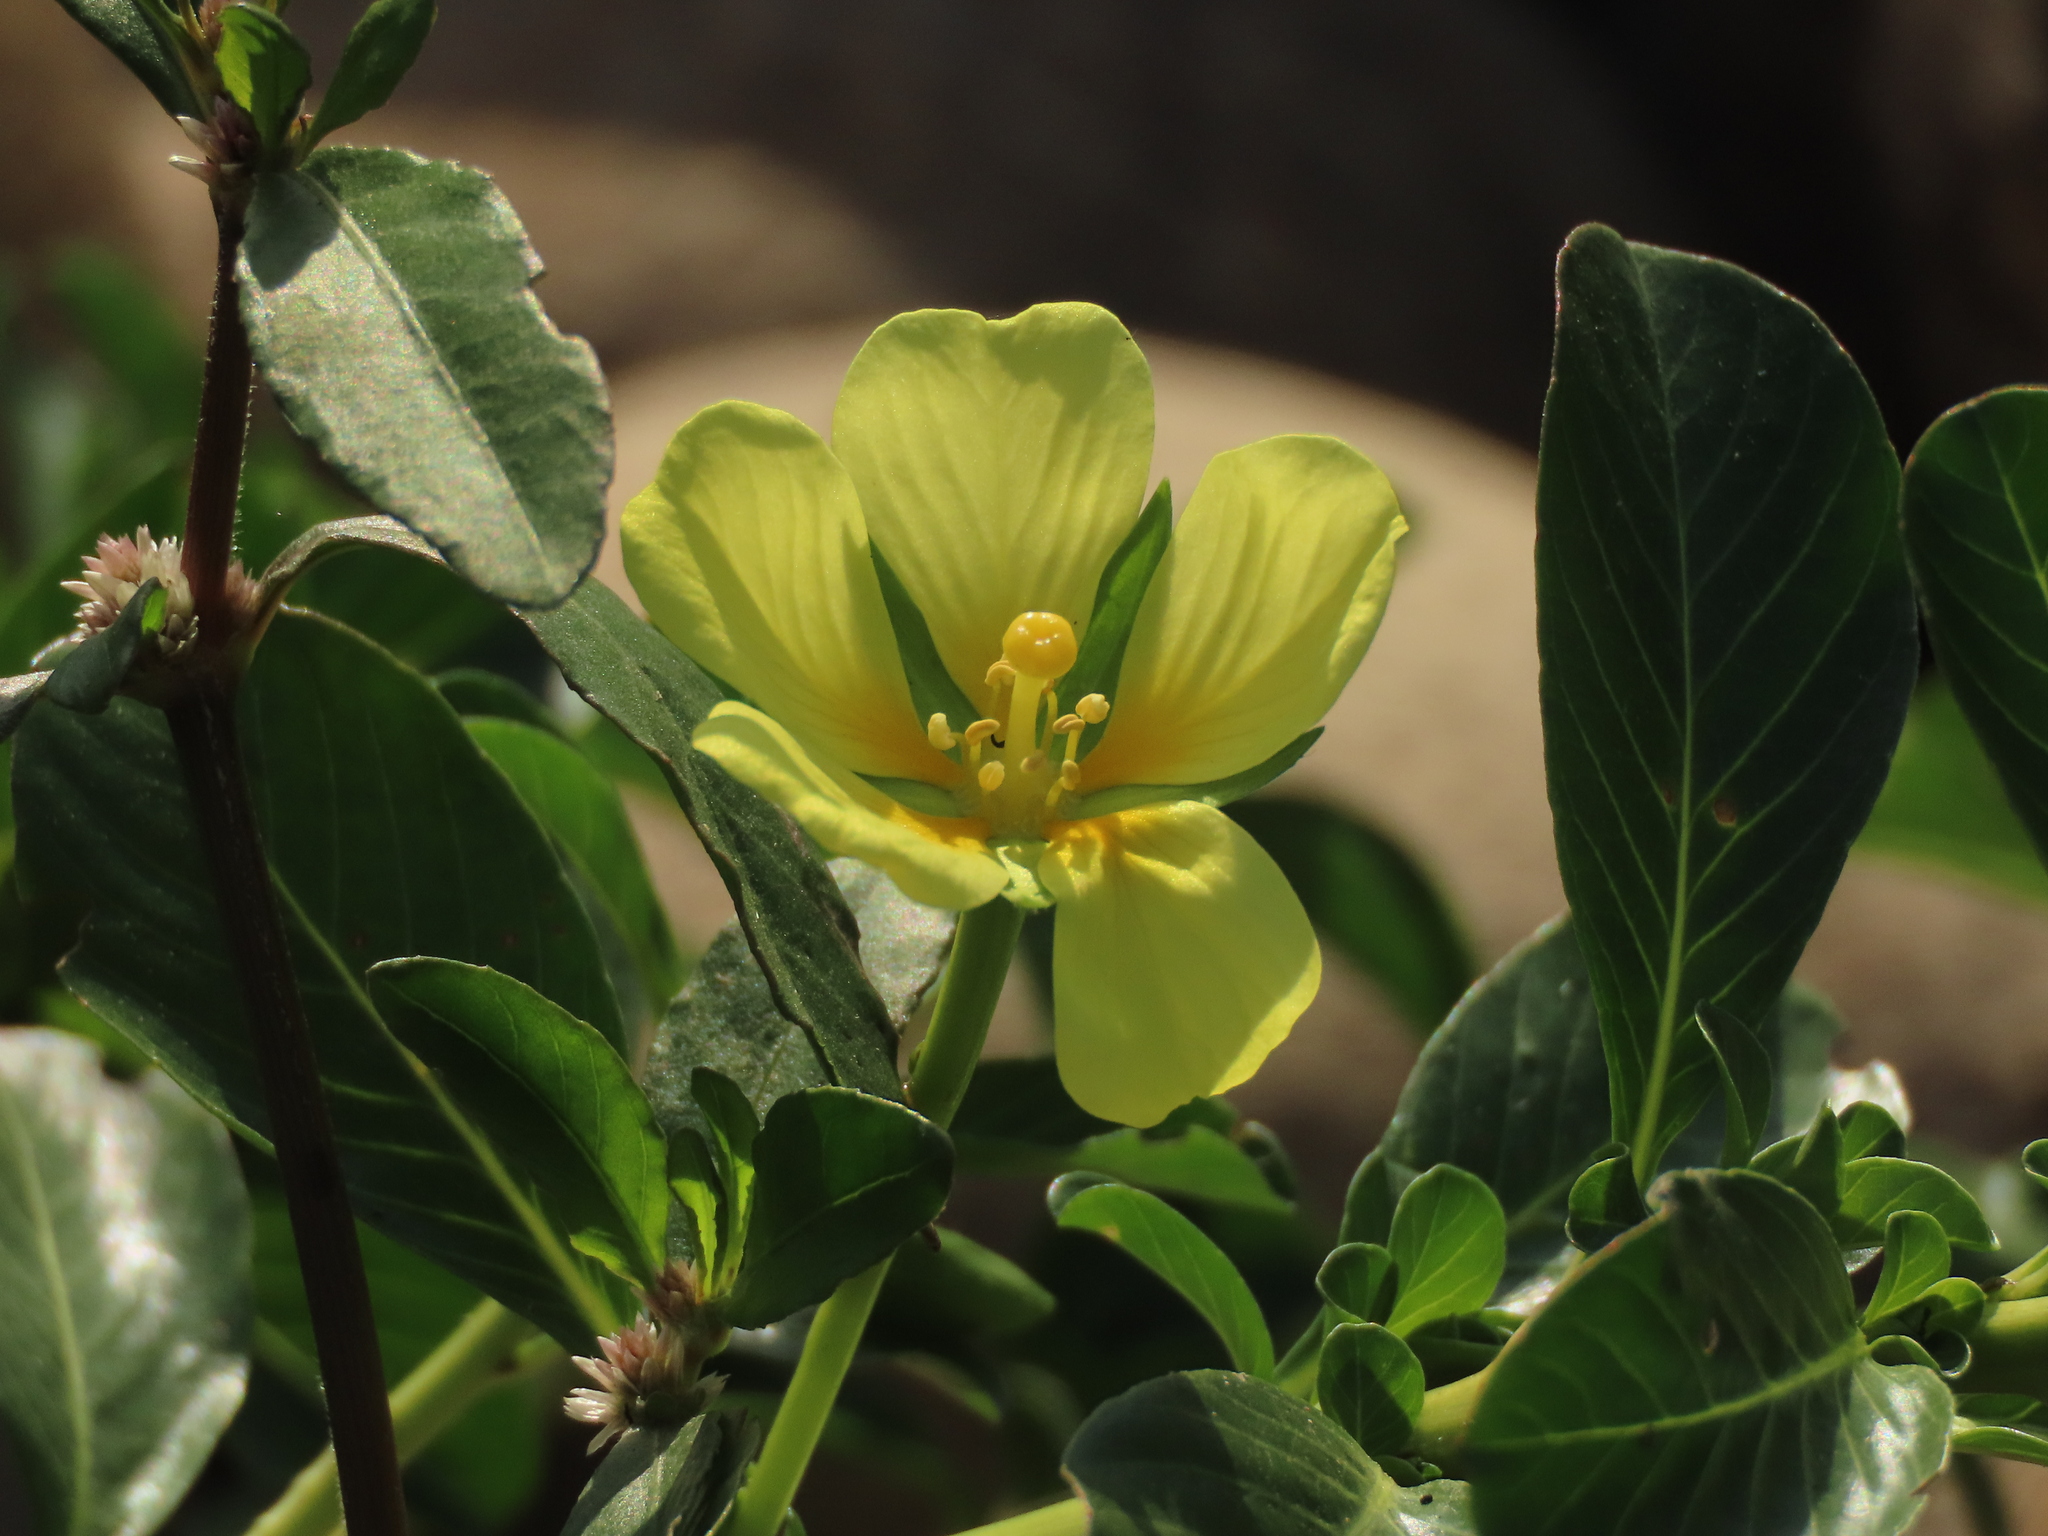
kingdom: Plantae
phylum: Tracheophyta
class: Magnoliopsida
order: Myrtales
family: Onagraceae
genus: Ludwigia
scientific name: Ludwigia taiwanensis
